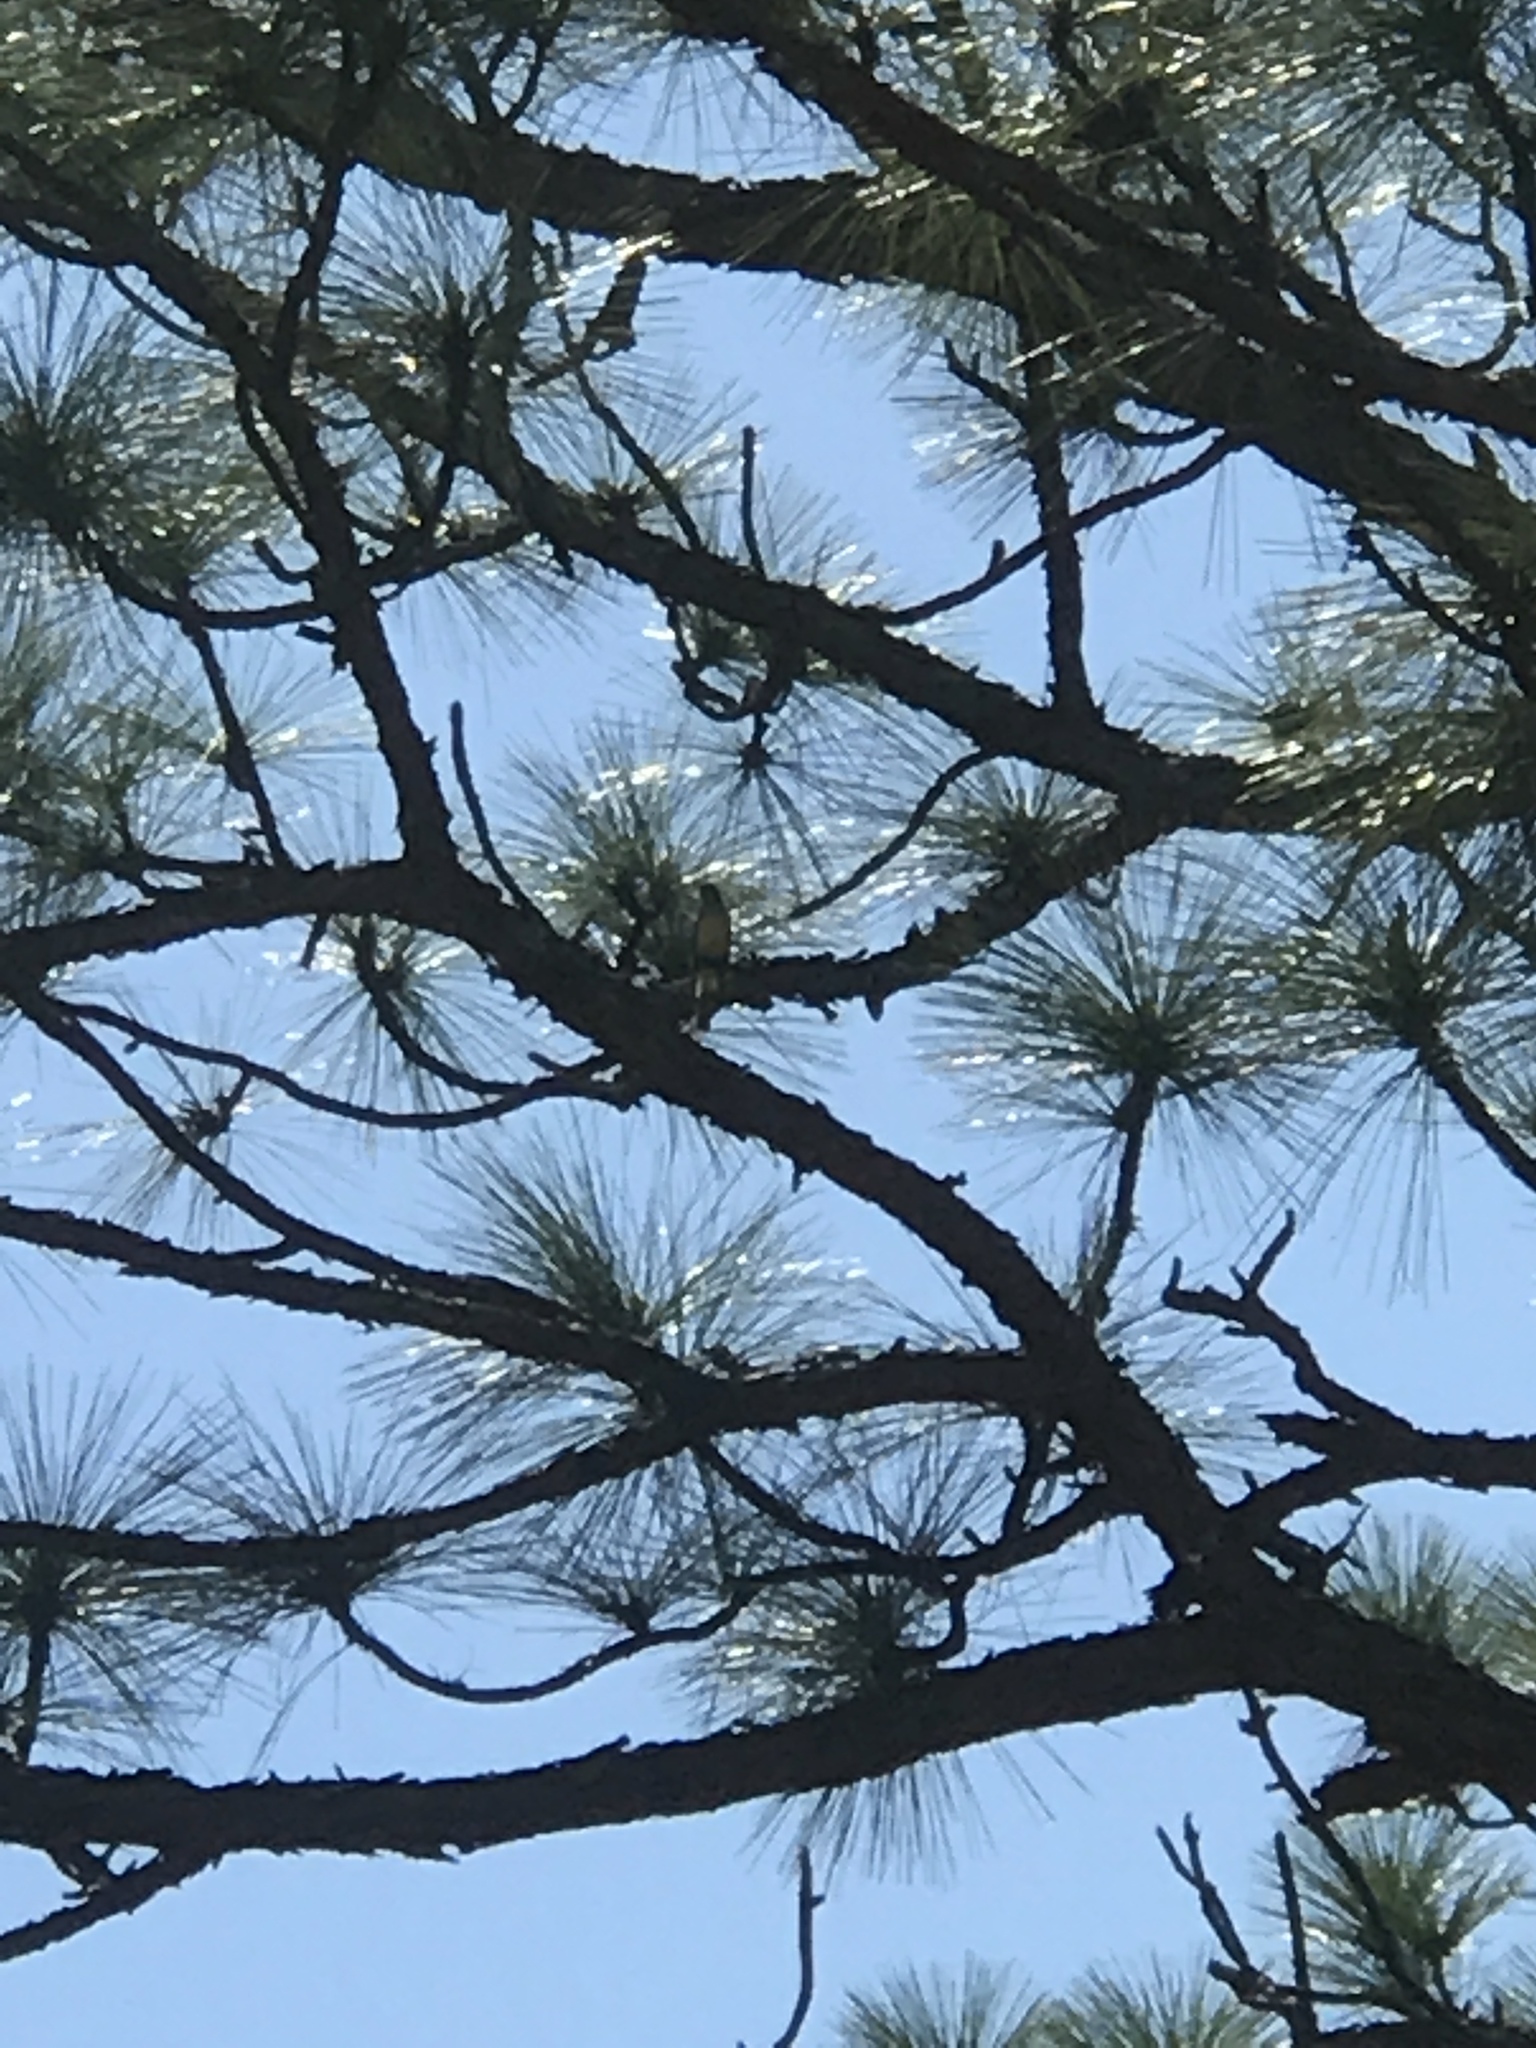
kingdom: Animalia
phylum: Chordata
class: Aves
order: Passeriformes
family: Tyrannidae
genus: Myiarchus
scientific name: Myiarchus crinitus
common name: Great crested flycatcher
